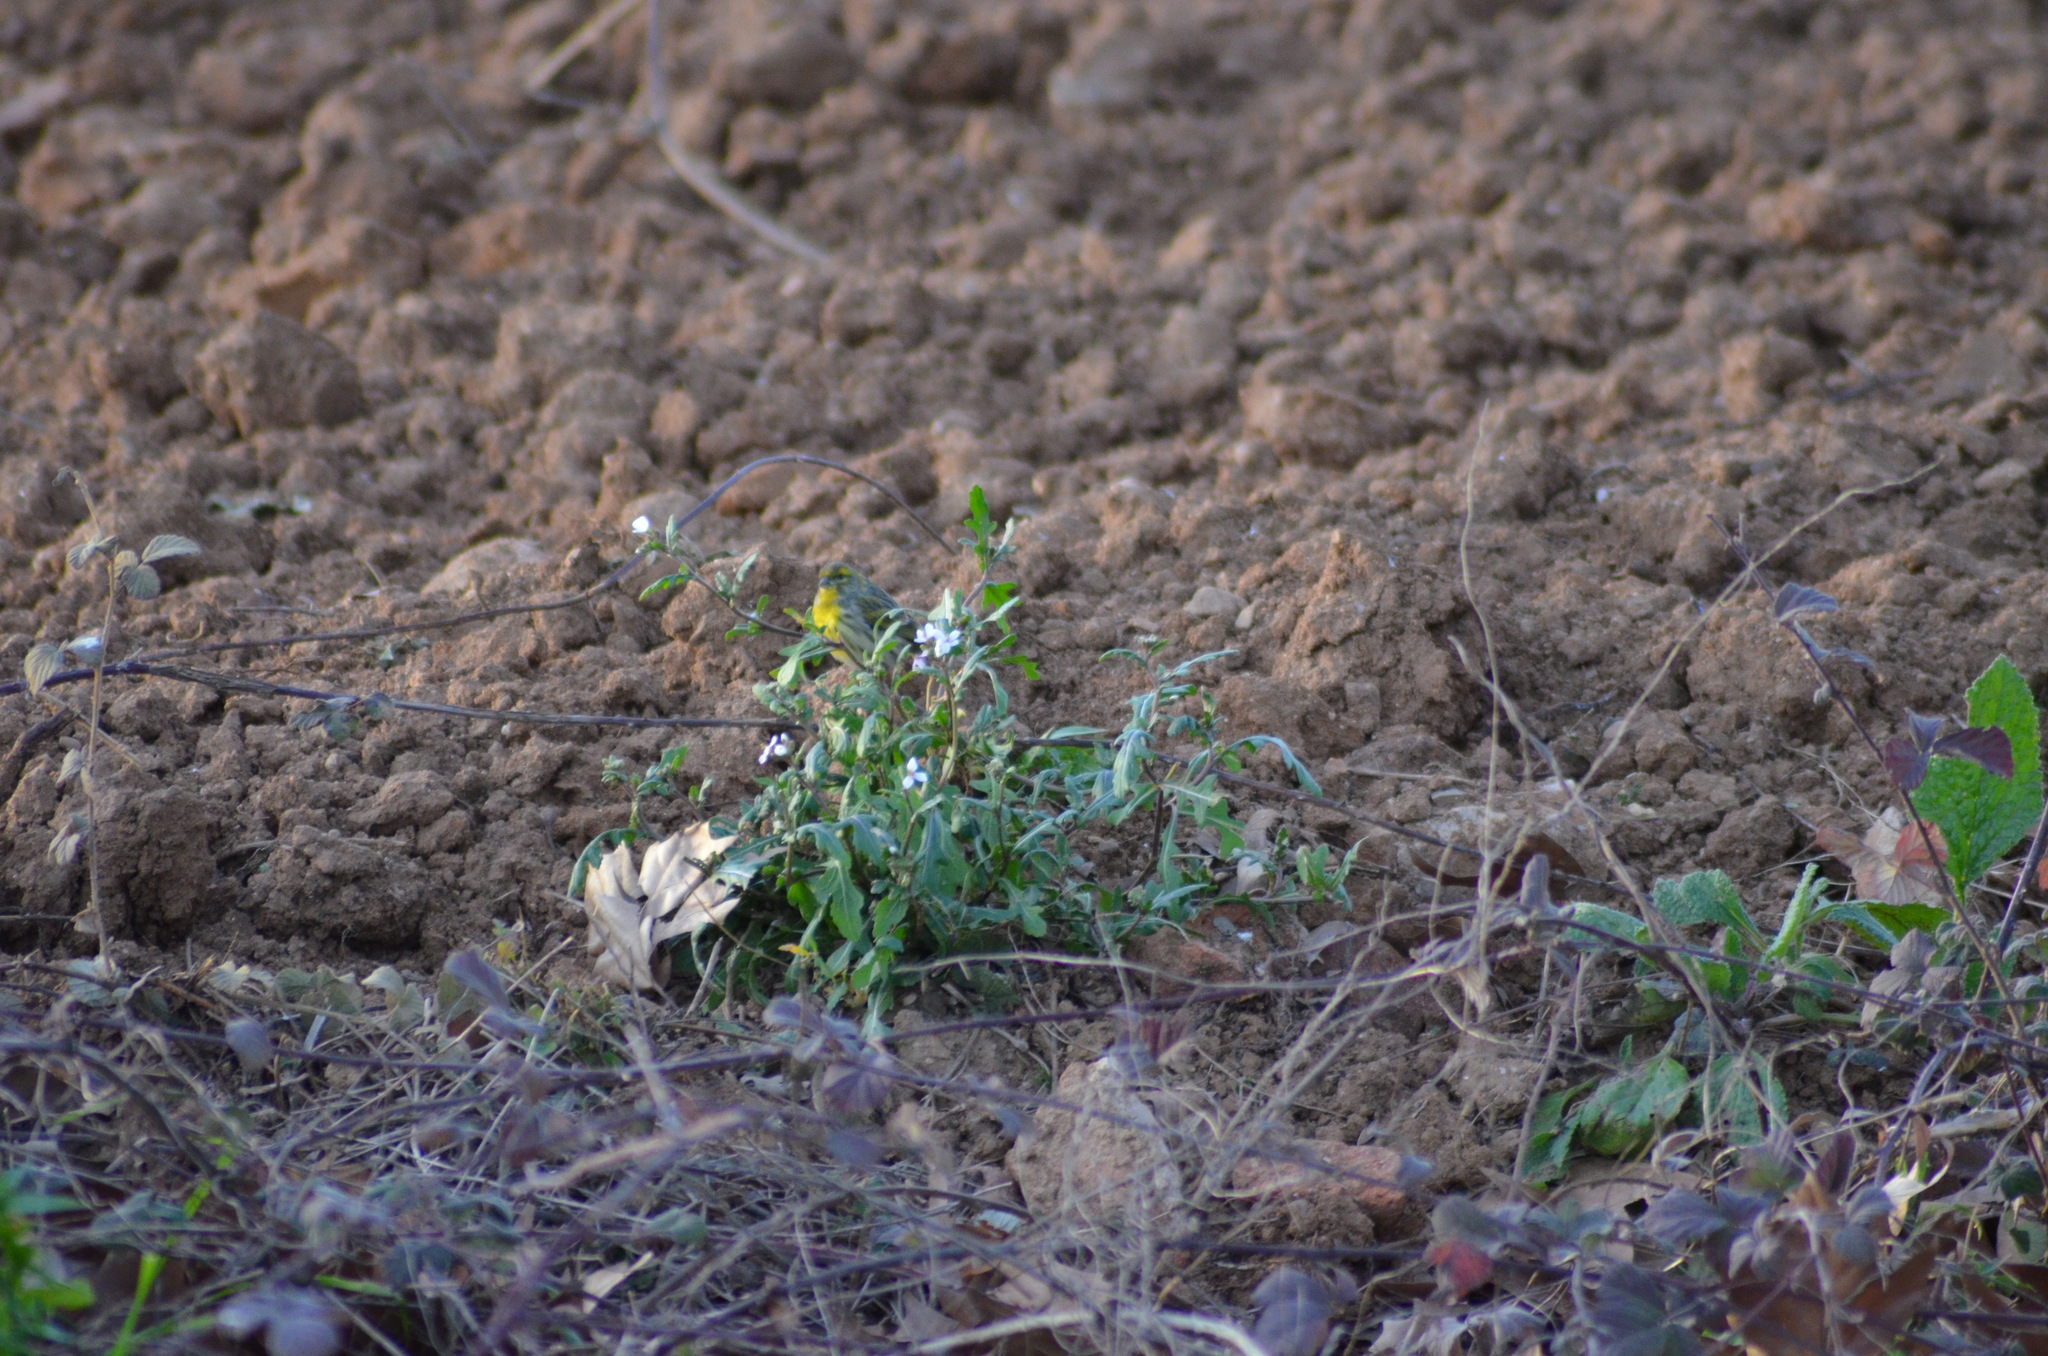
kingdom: Animalia
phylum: Chordata
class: Aves
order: Passeriformes
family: Fringillidae
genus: Serinus
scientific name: Serinus serinus
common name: European serin
